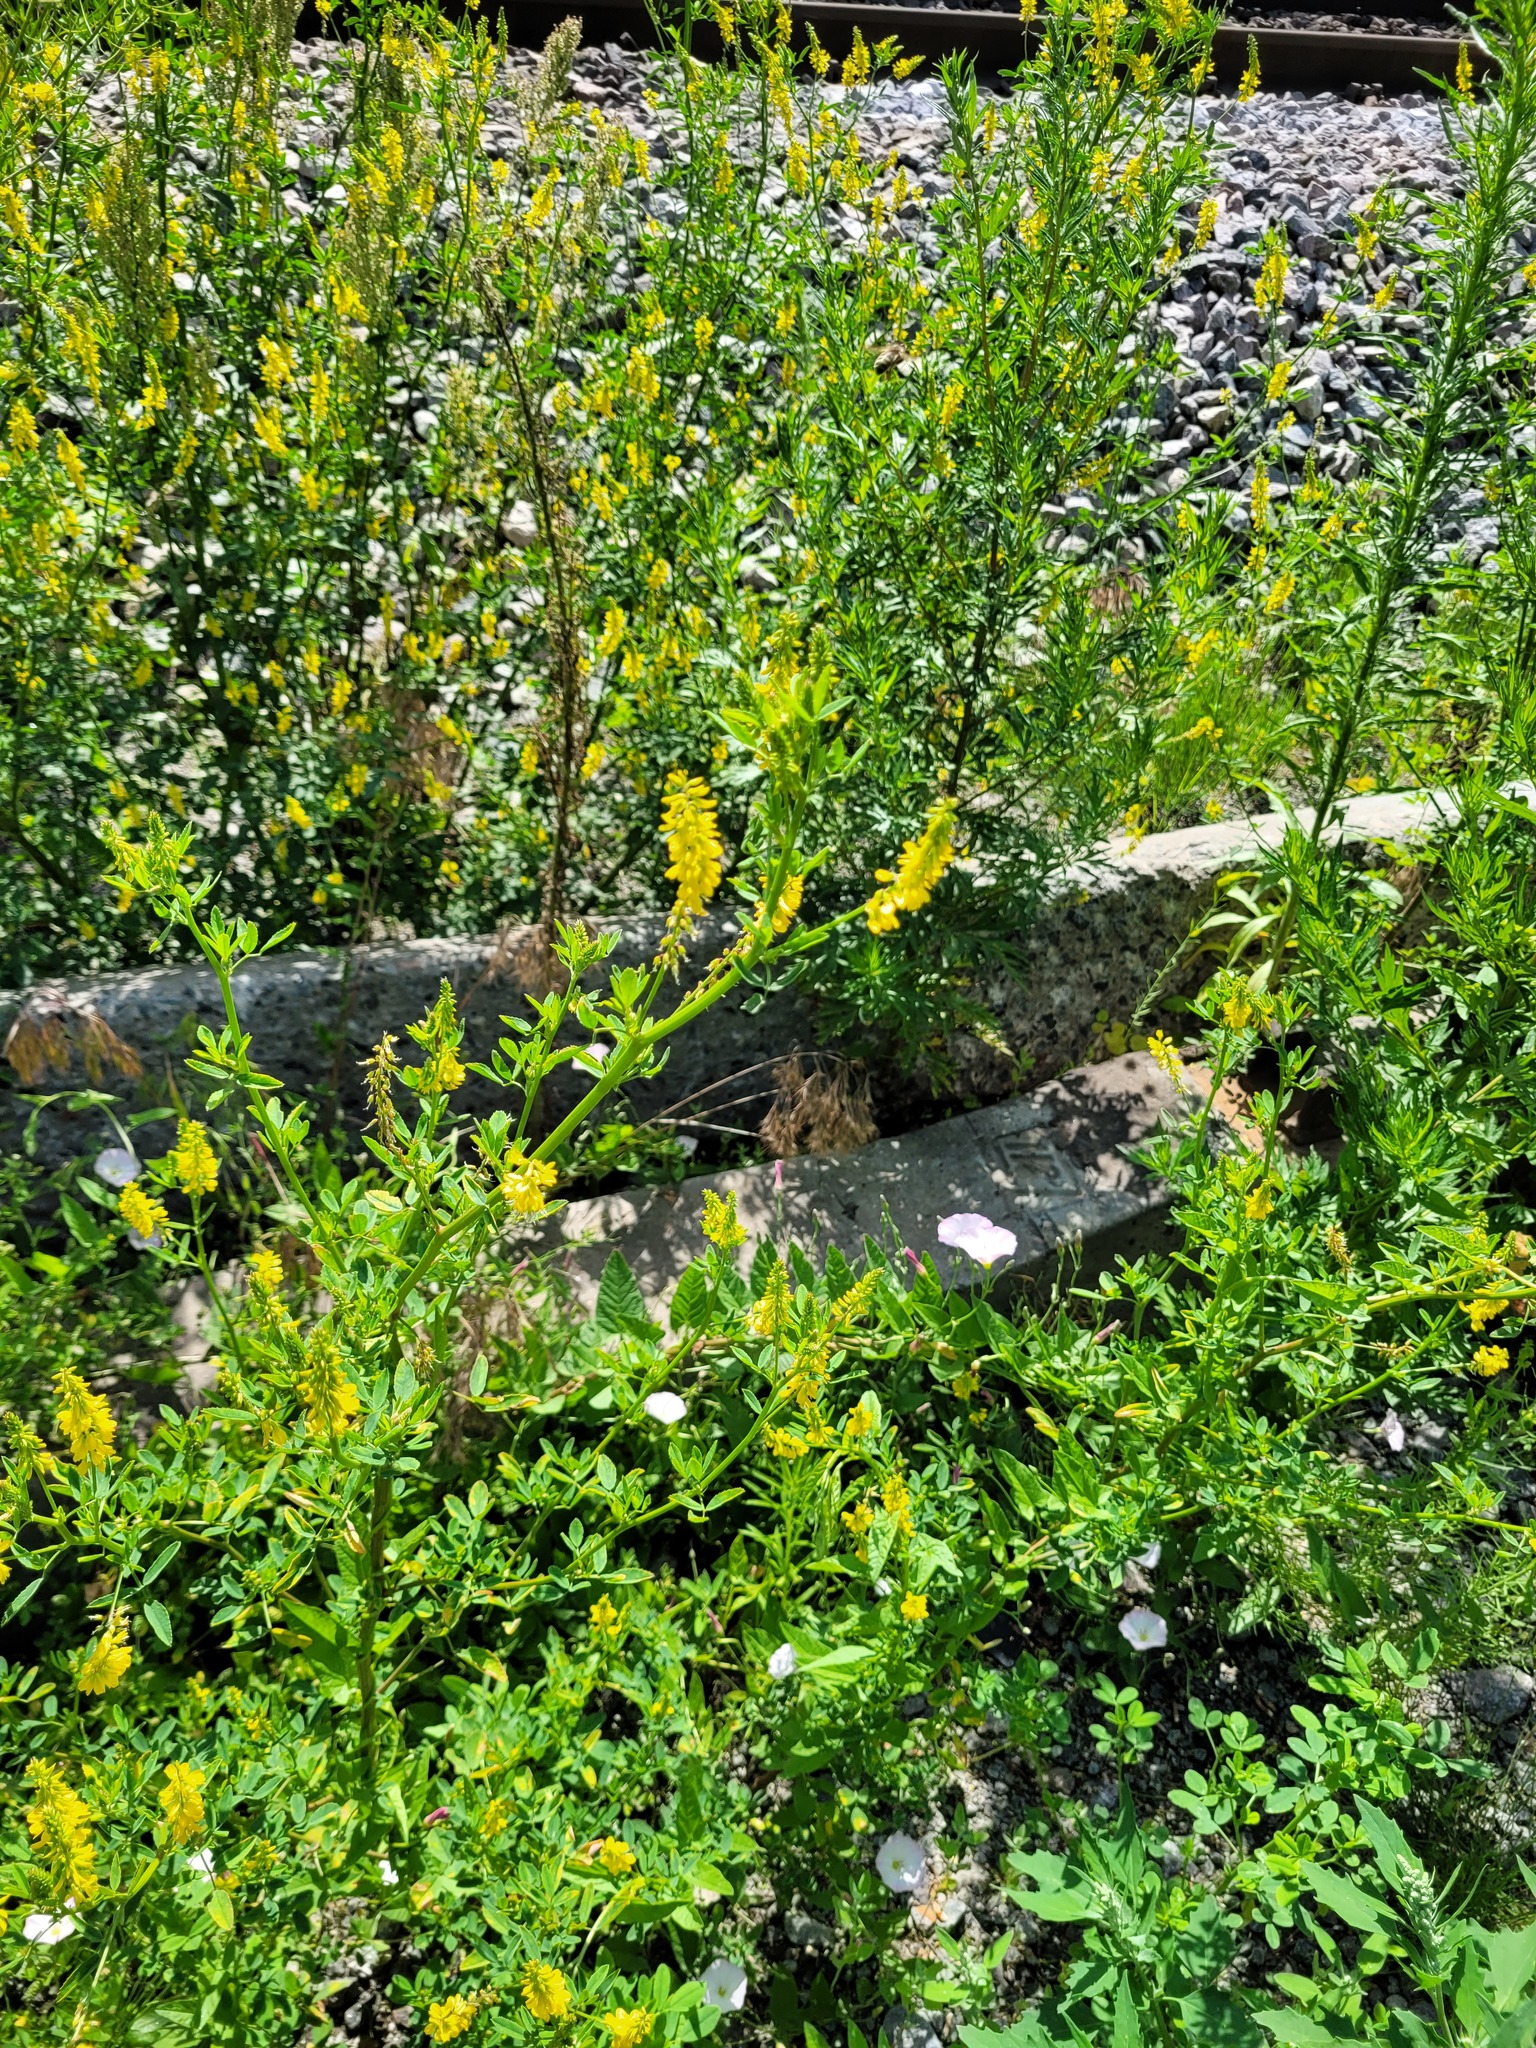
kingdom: Plantae
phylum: Tracheophyta
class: Magnoliopsida
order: Fabales
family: Fabaceae
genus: Melilotus
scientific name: Melilotus officinalis
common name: Sweetclover
